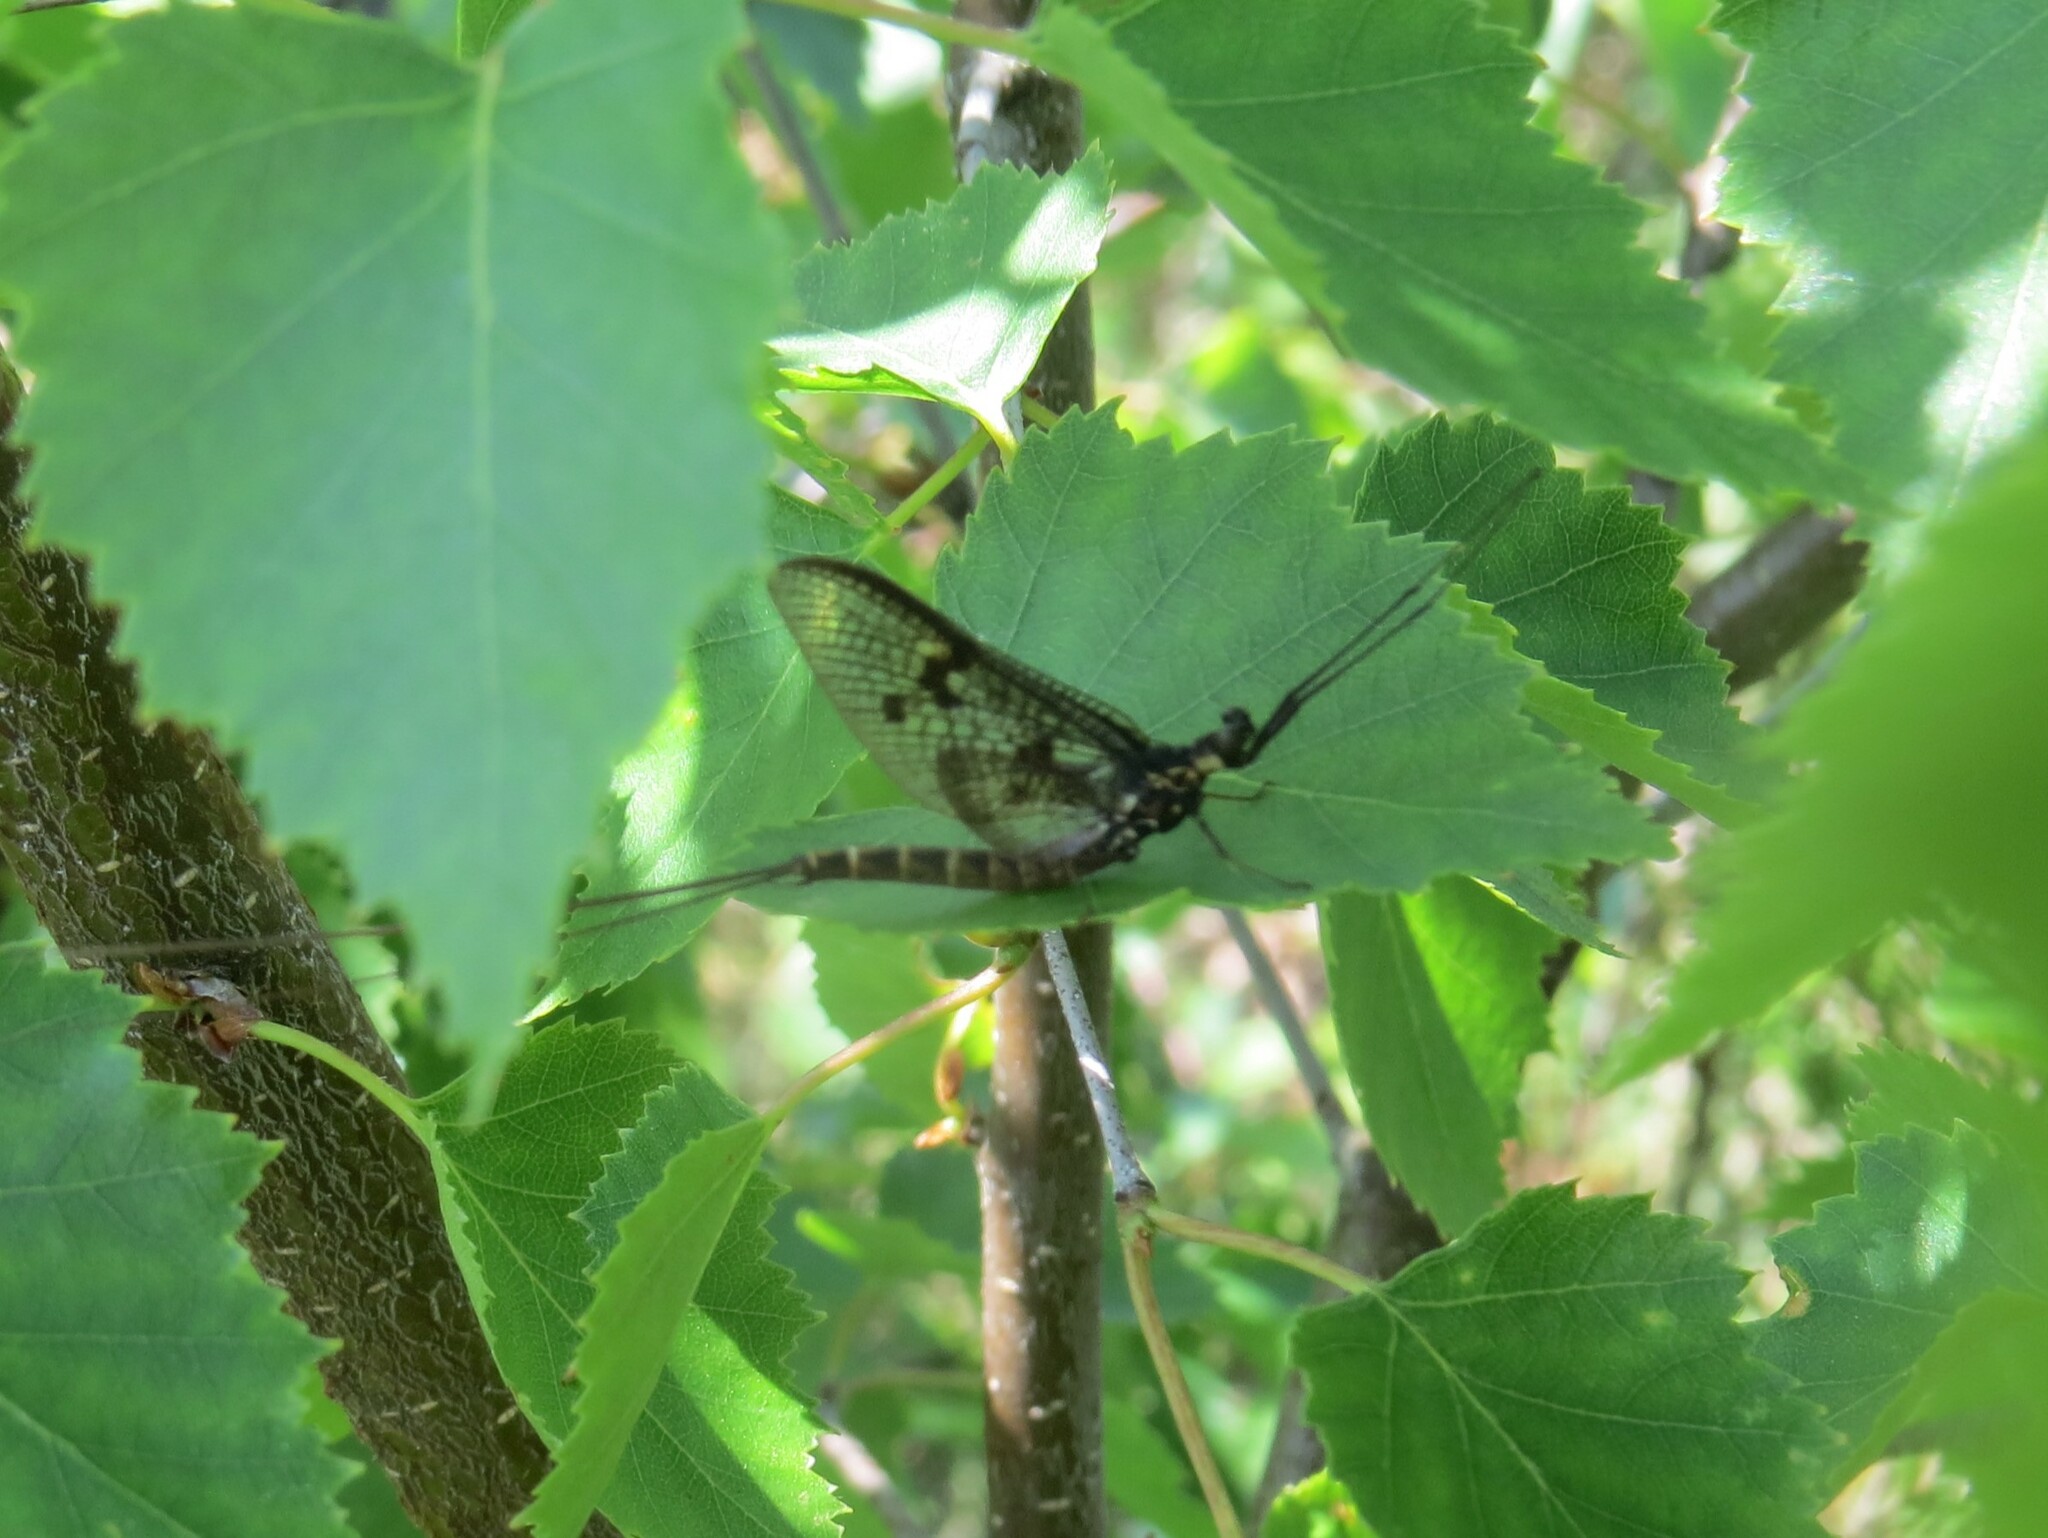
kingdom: Animalia
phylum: Arthropoda
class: Insecta
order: Ephemeroptera
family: Ephemeridae
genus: Ephemera
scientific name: Ephemera vulgata
